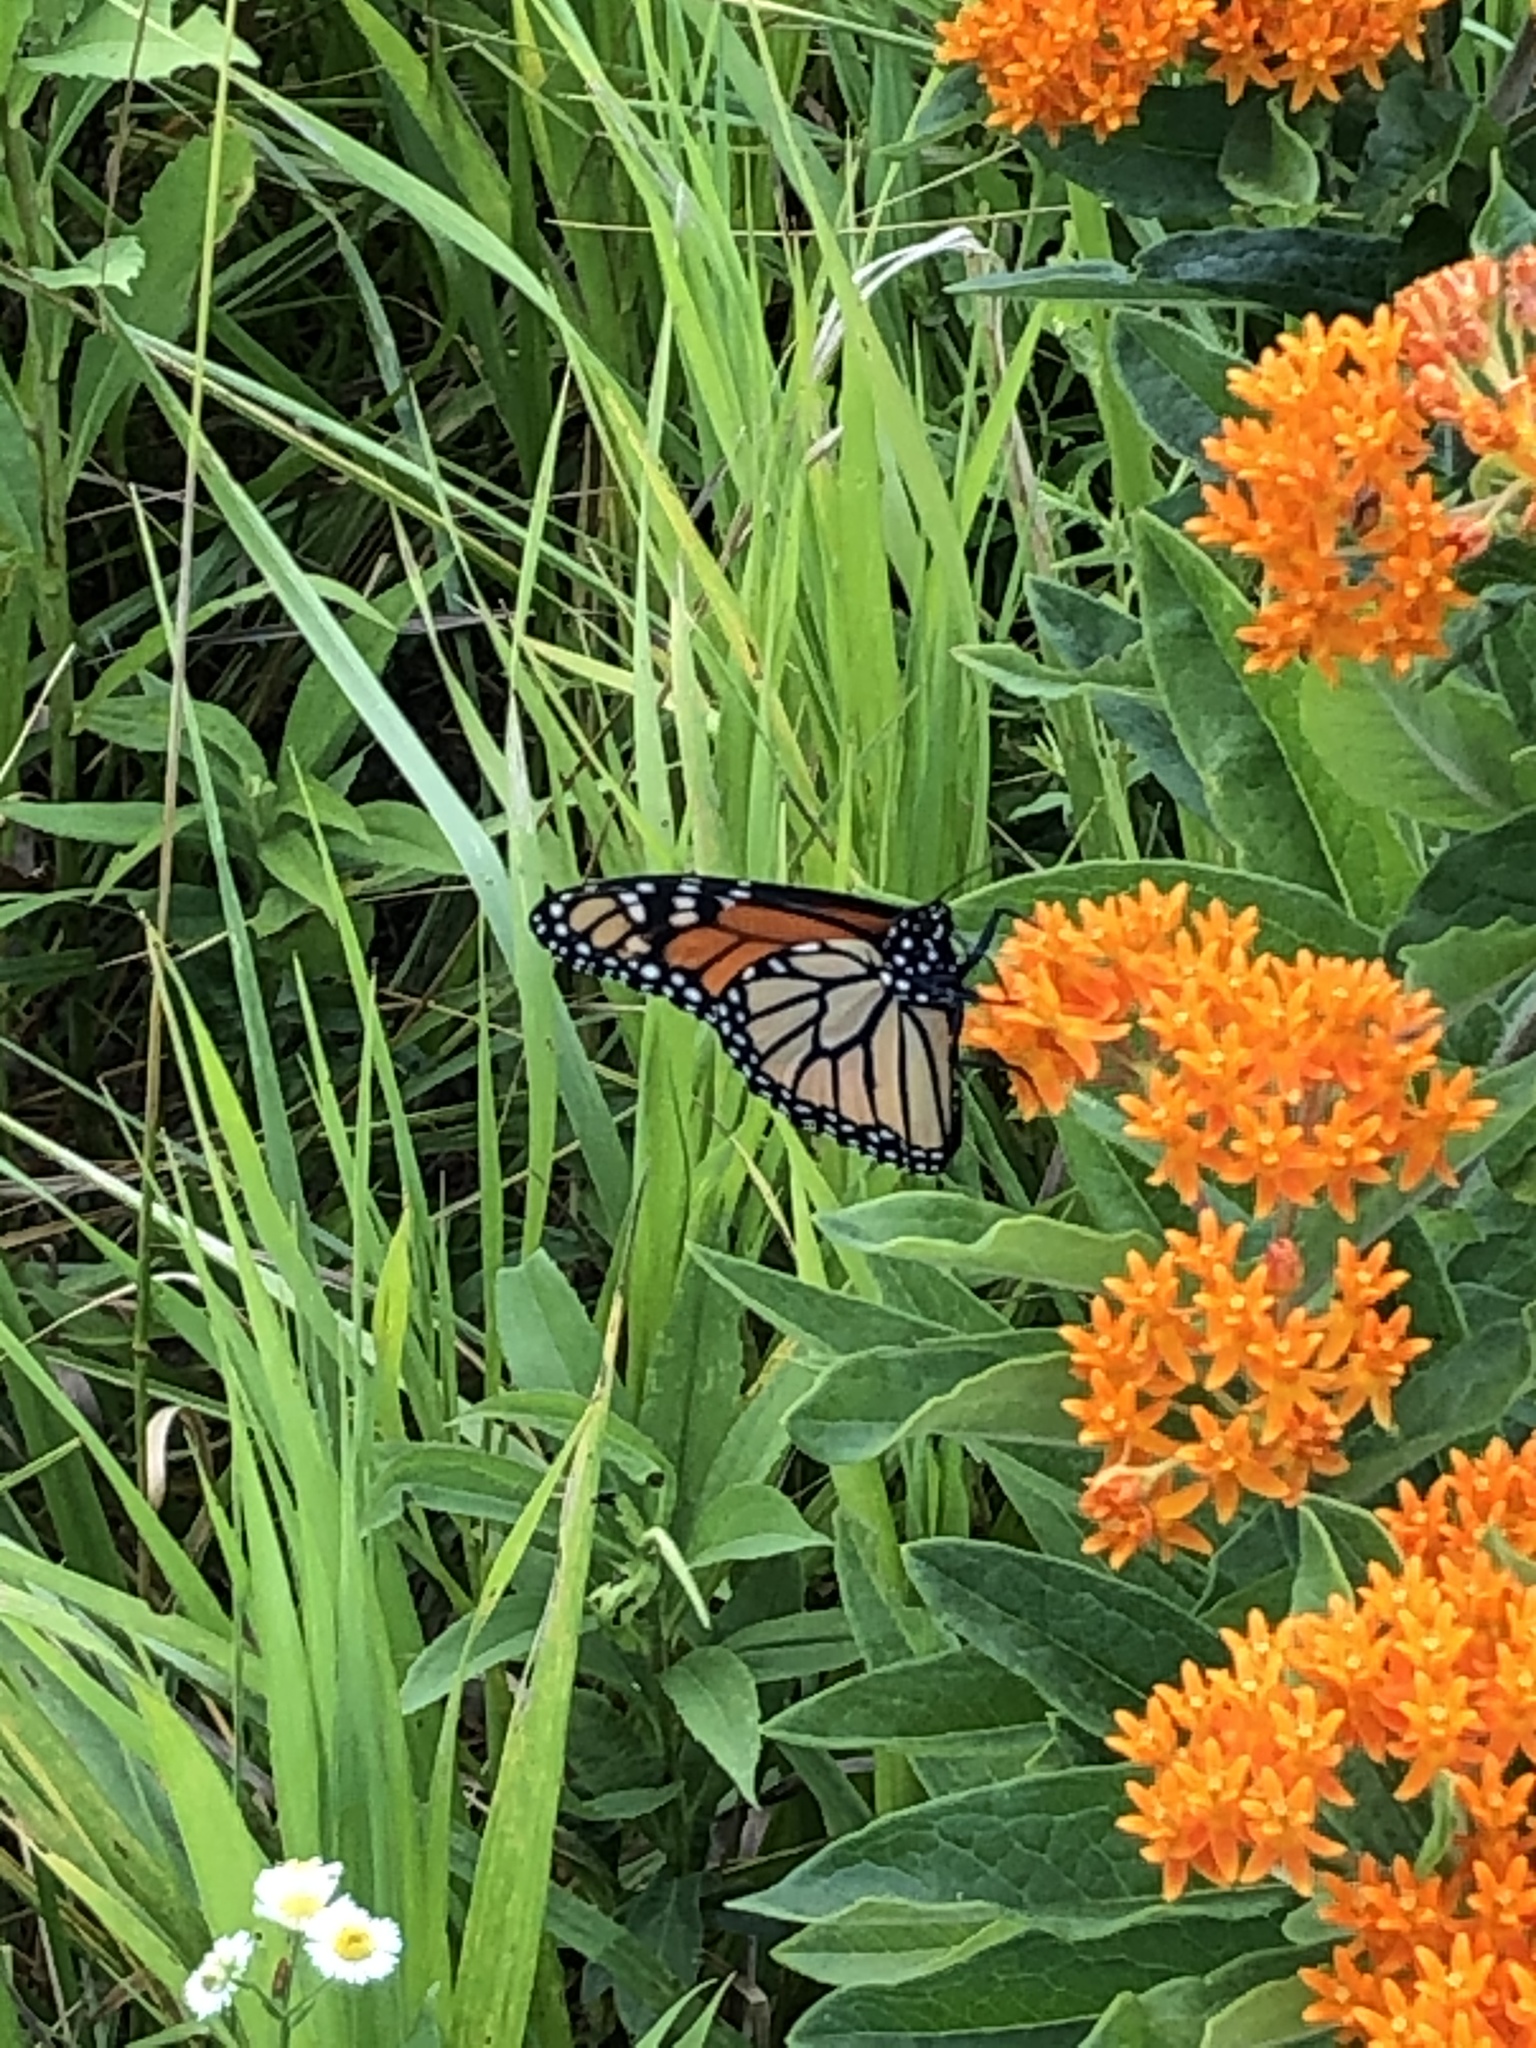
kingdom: Animalia
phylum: Arthropoda
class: Insecta
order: Lepidoptera
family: Nymphalidae
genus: Danaus
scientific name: Danaus plexippus
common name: Monarch
